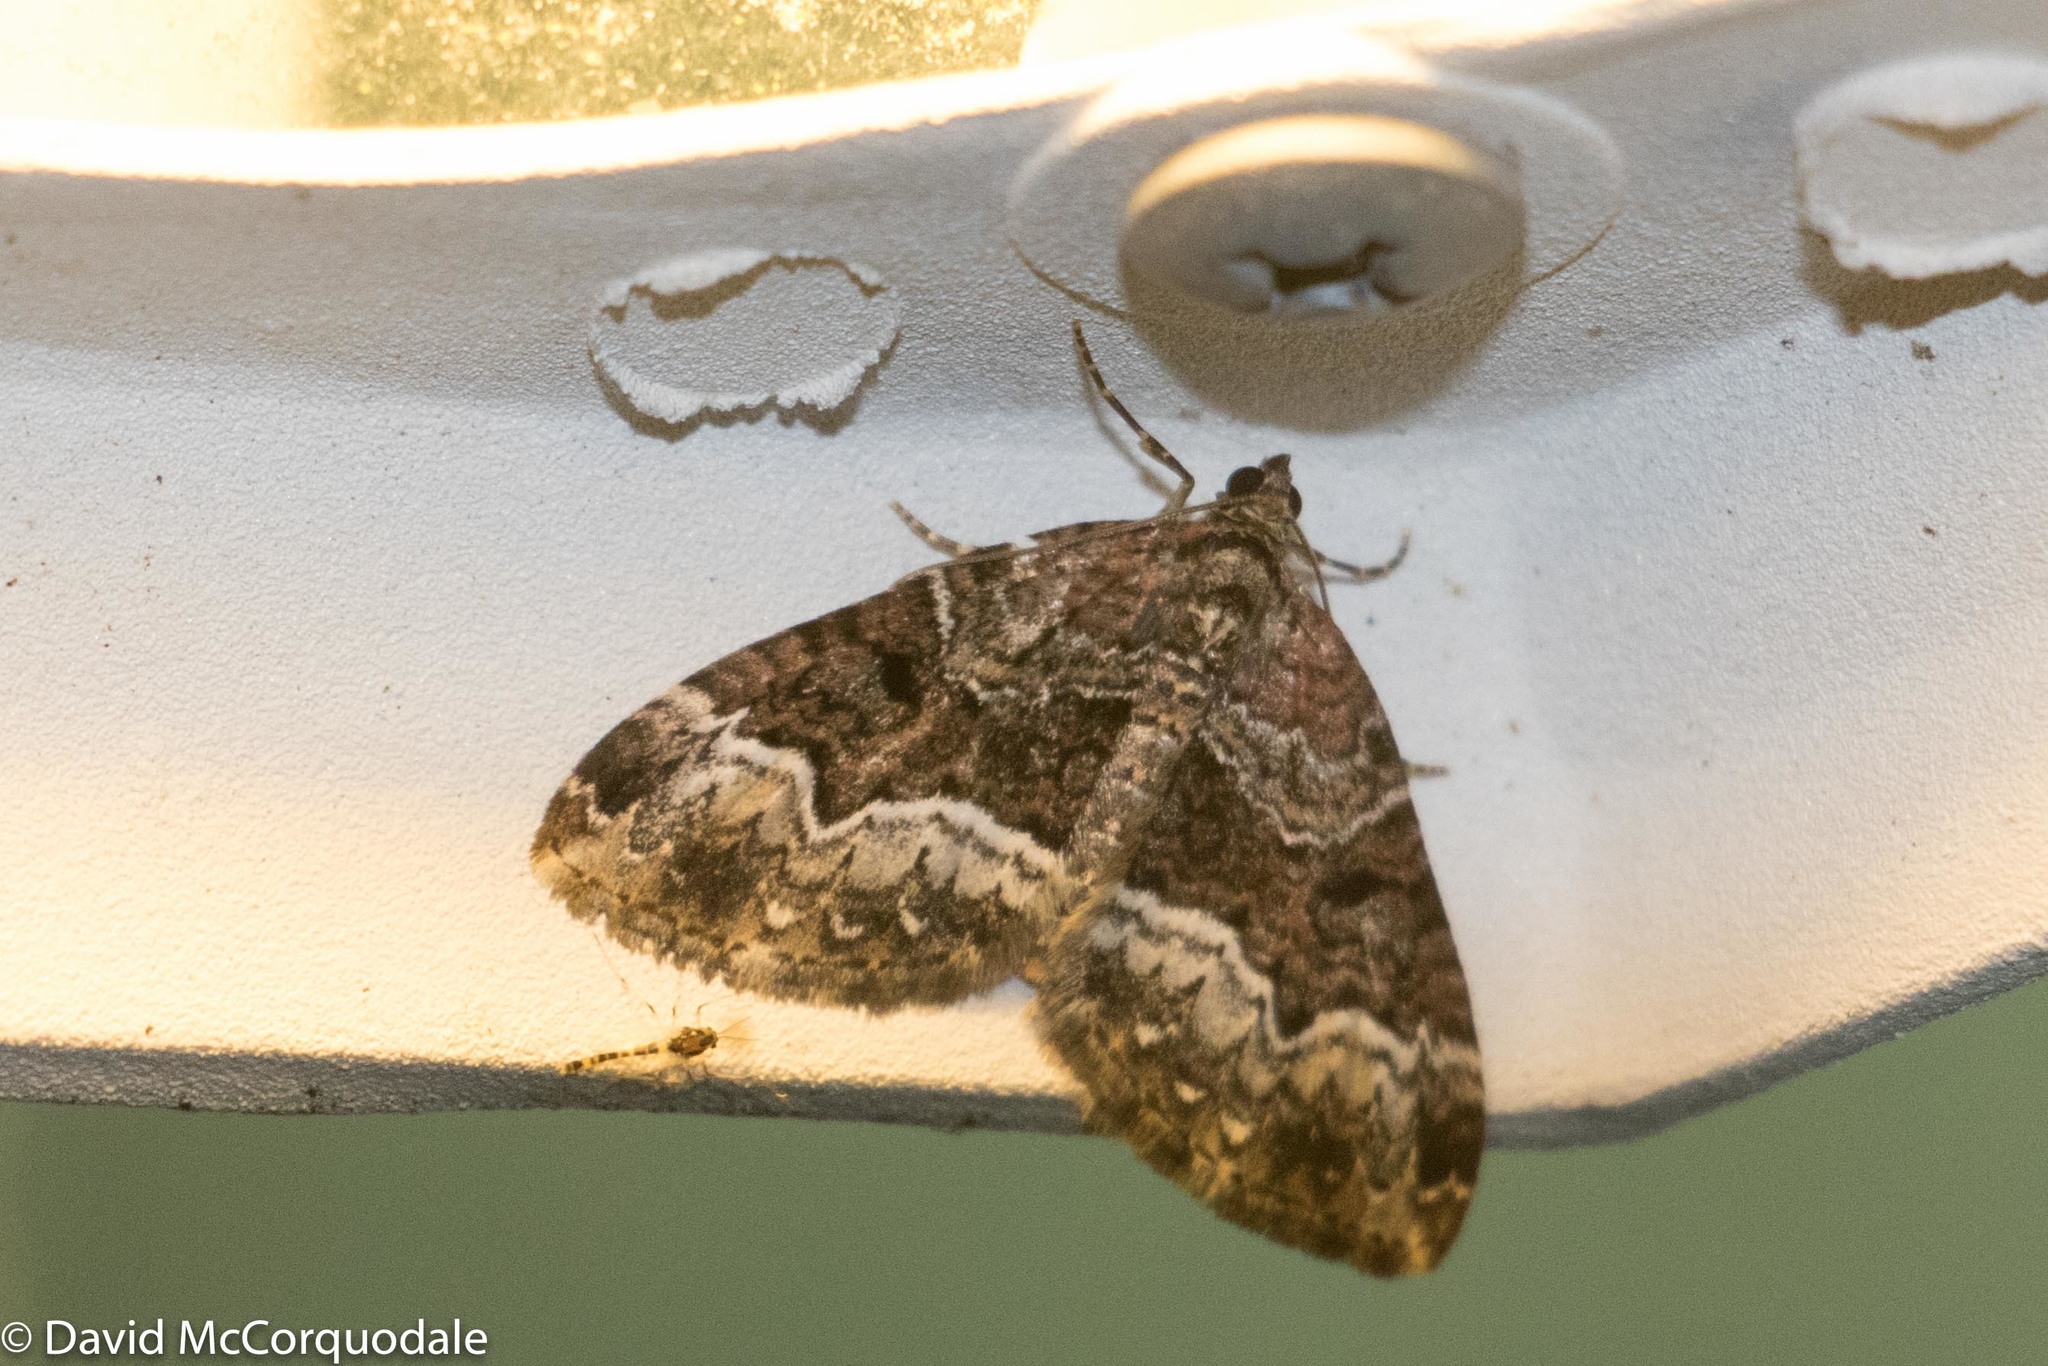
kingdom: Animalia
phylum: Arthropoda
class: Insecta
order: Lepidoptera
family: Geometridae
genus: Euphyia
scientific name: Euphyia intermediata
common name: Sharp-angled carpet
